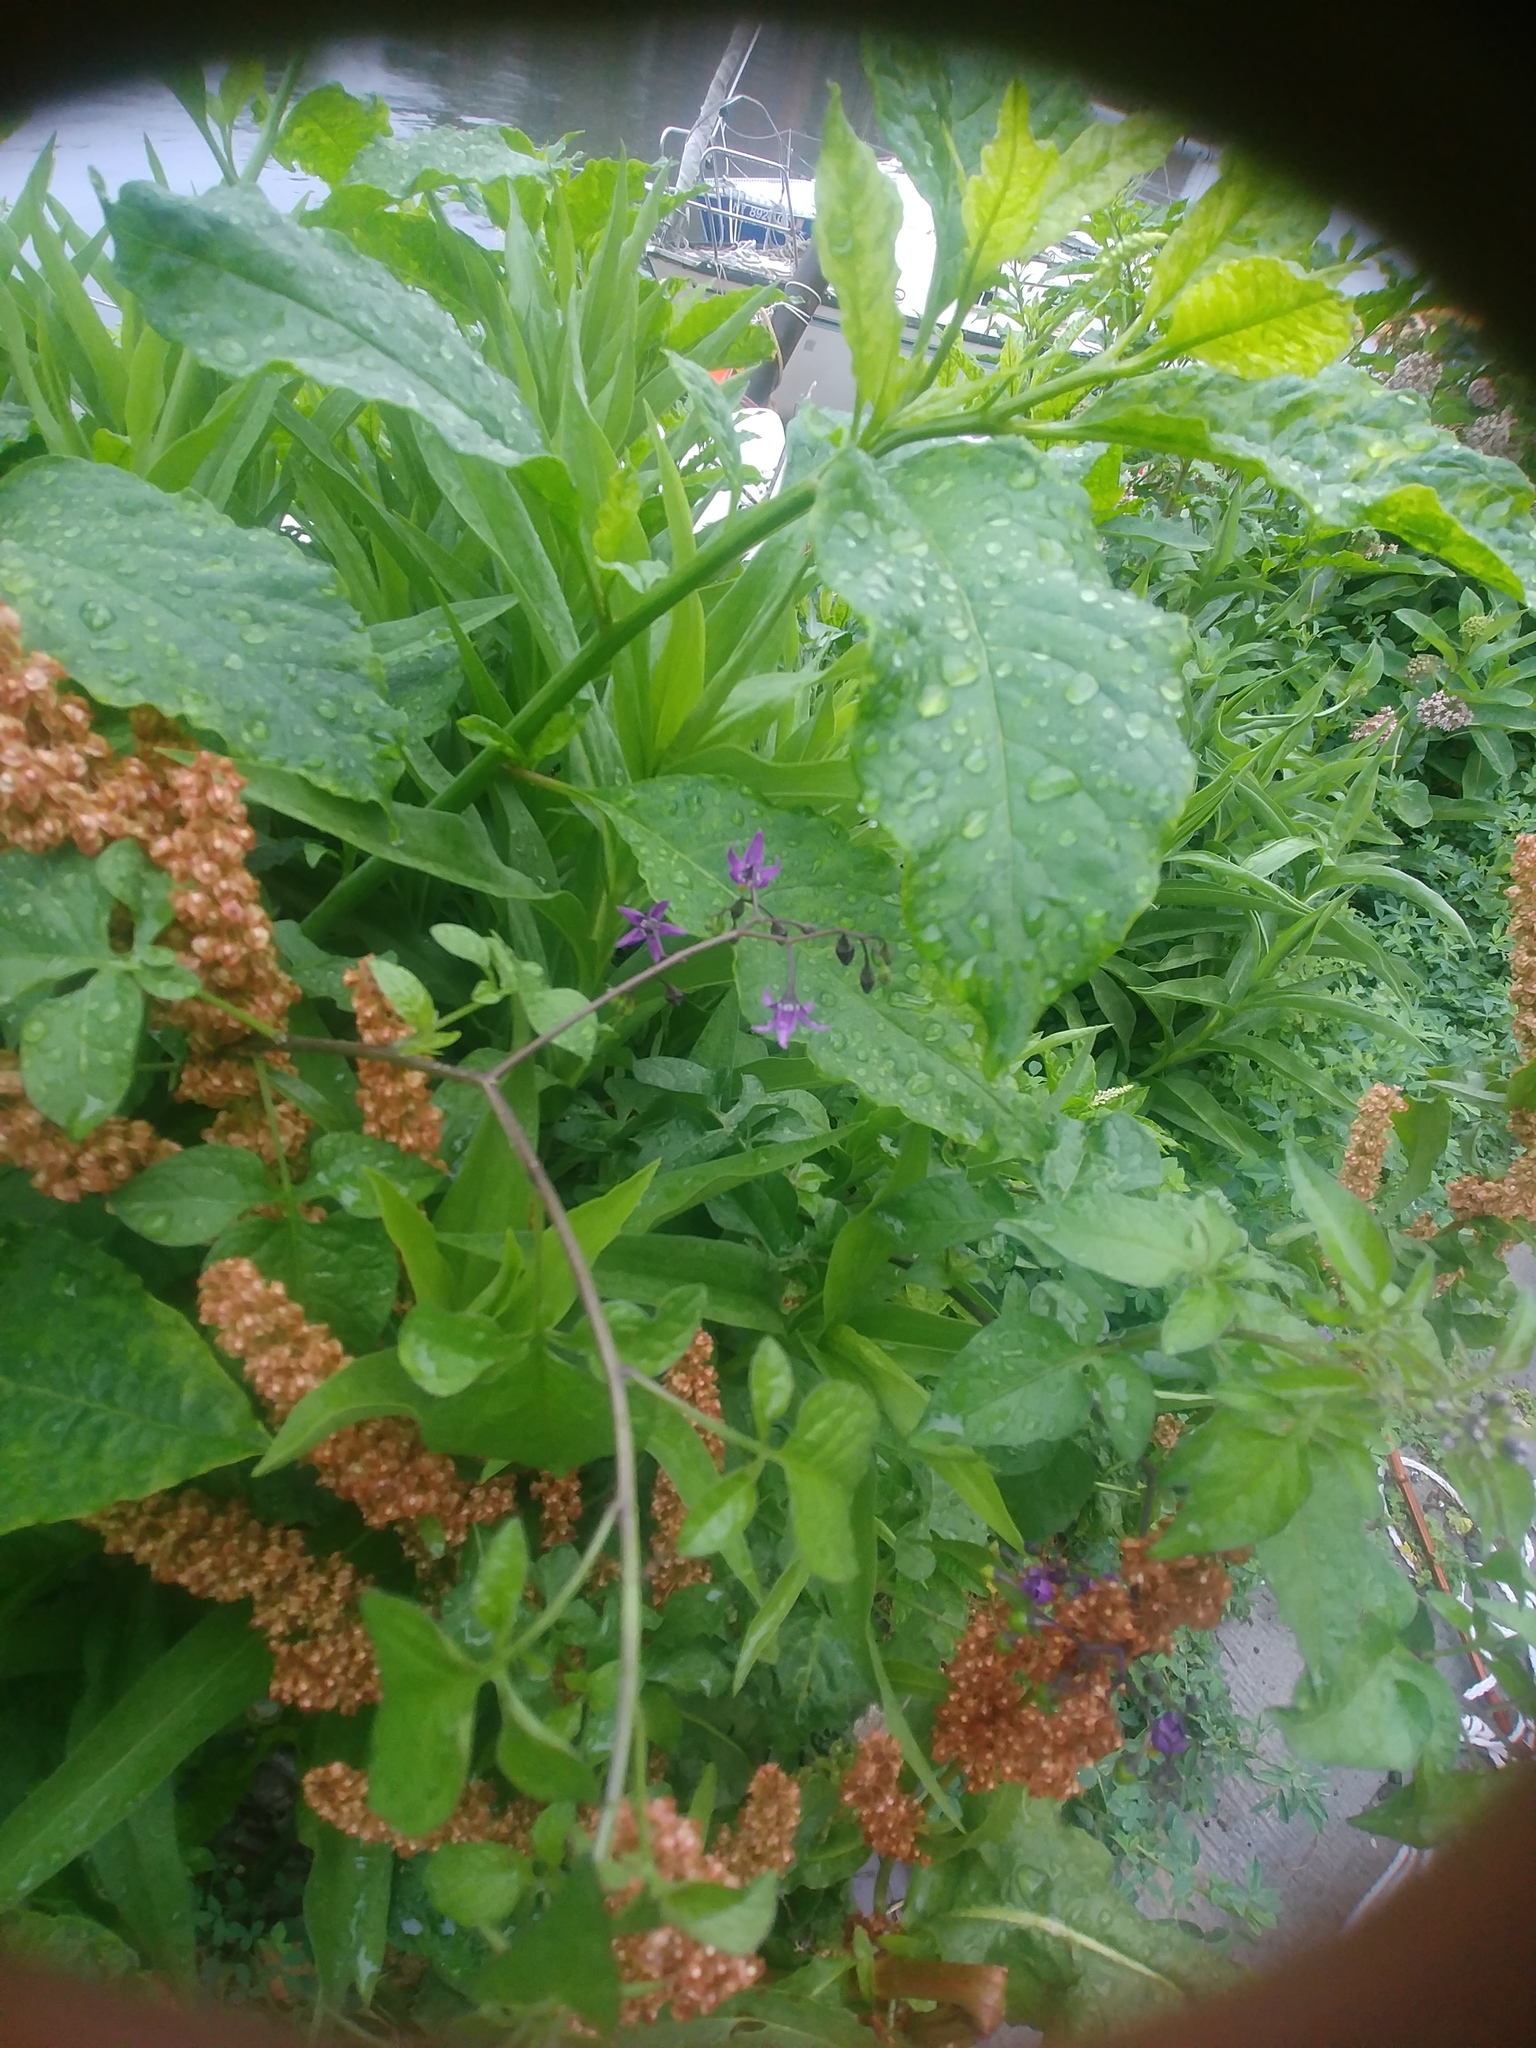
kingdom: Plantae
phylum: Tracheophyta
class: Magnoliopsida
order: Solanales
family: Solanaceae
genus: Solanum
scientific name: Solanum dulcamara
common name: Climbing nightshade
